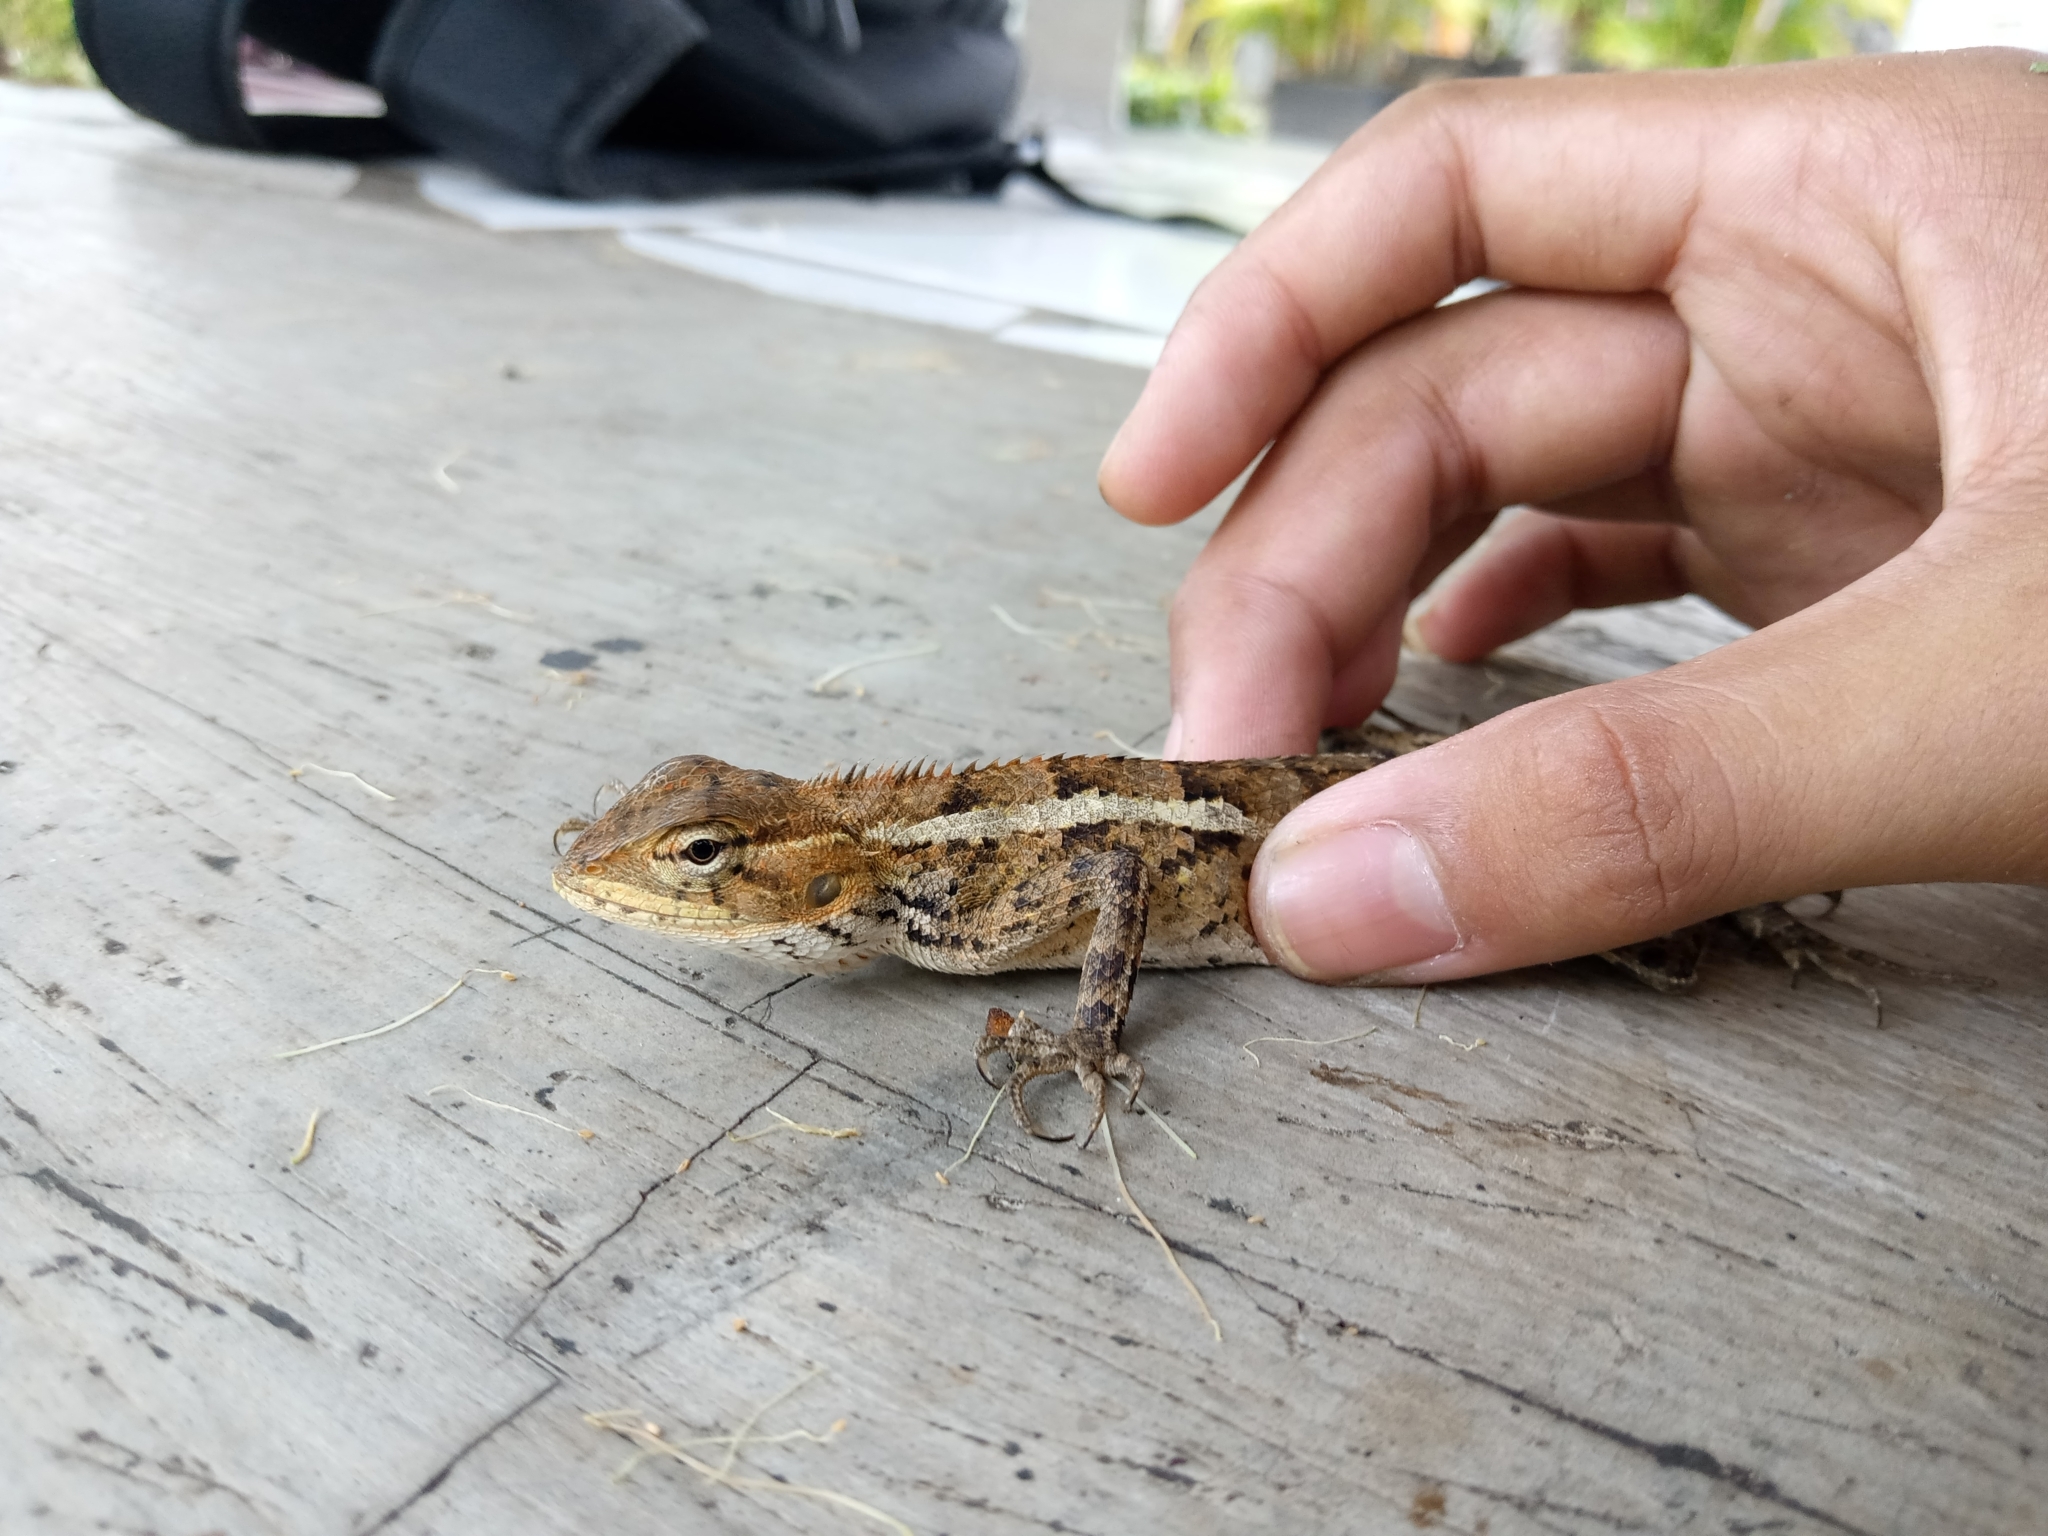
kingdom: Animalia
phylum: Chordata
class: Squamata
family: Agamidae
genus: Calotes
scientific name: Calotes versicolor
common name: Oriental garden lizard
